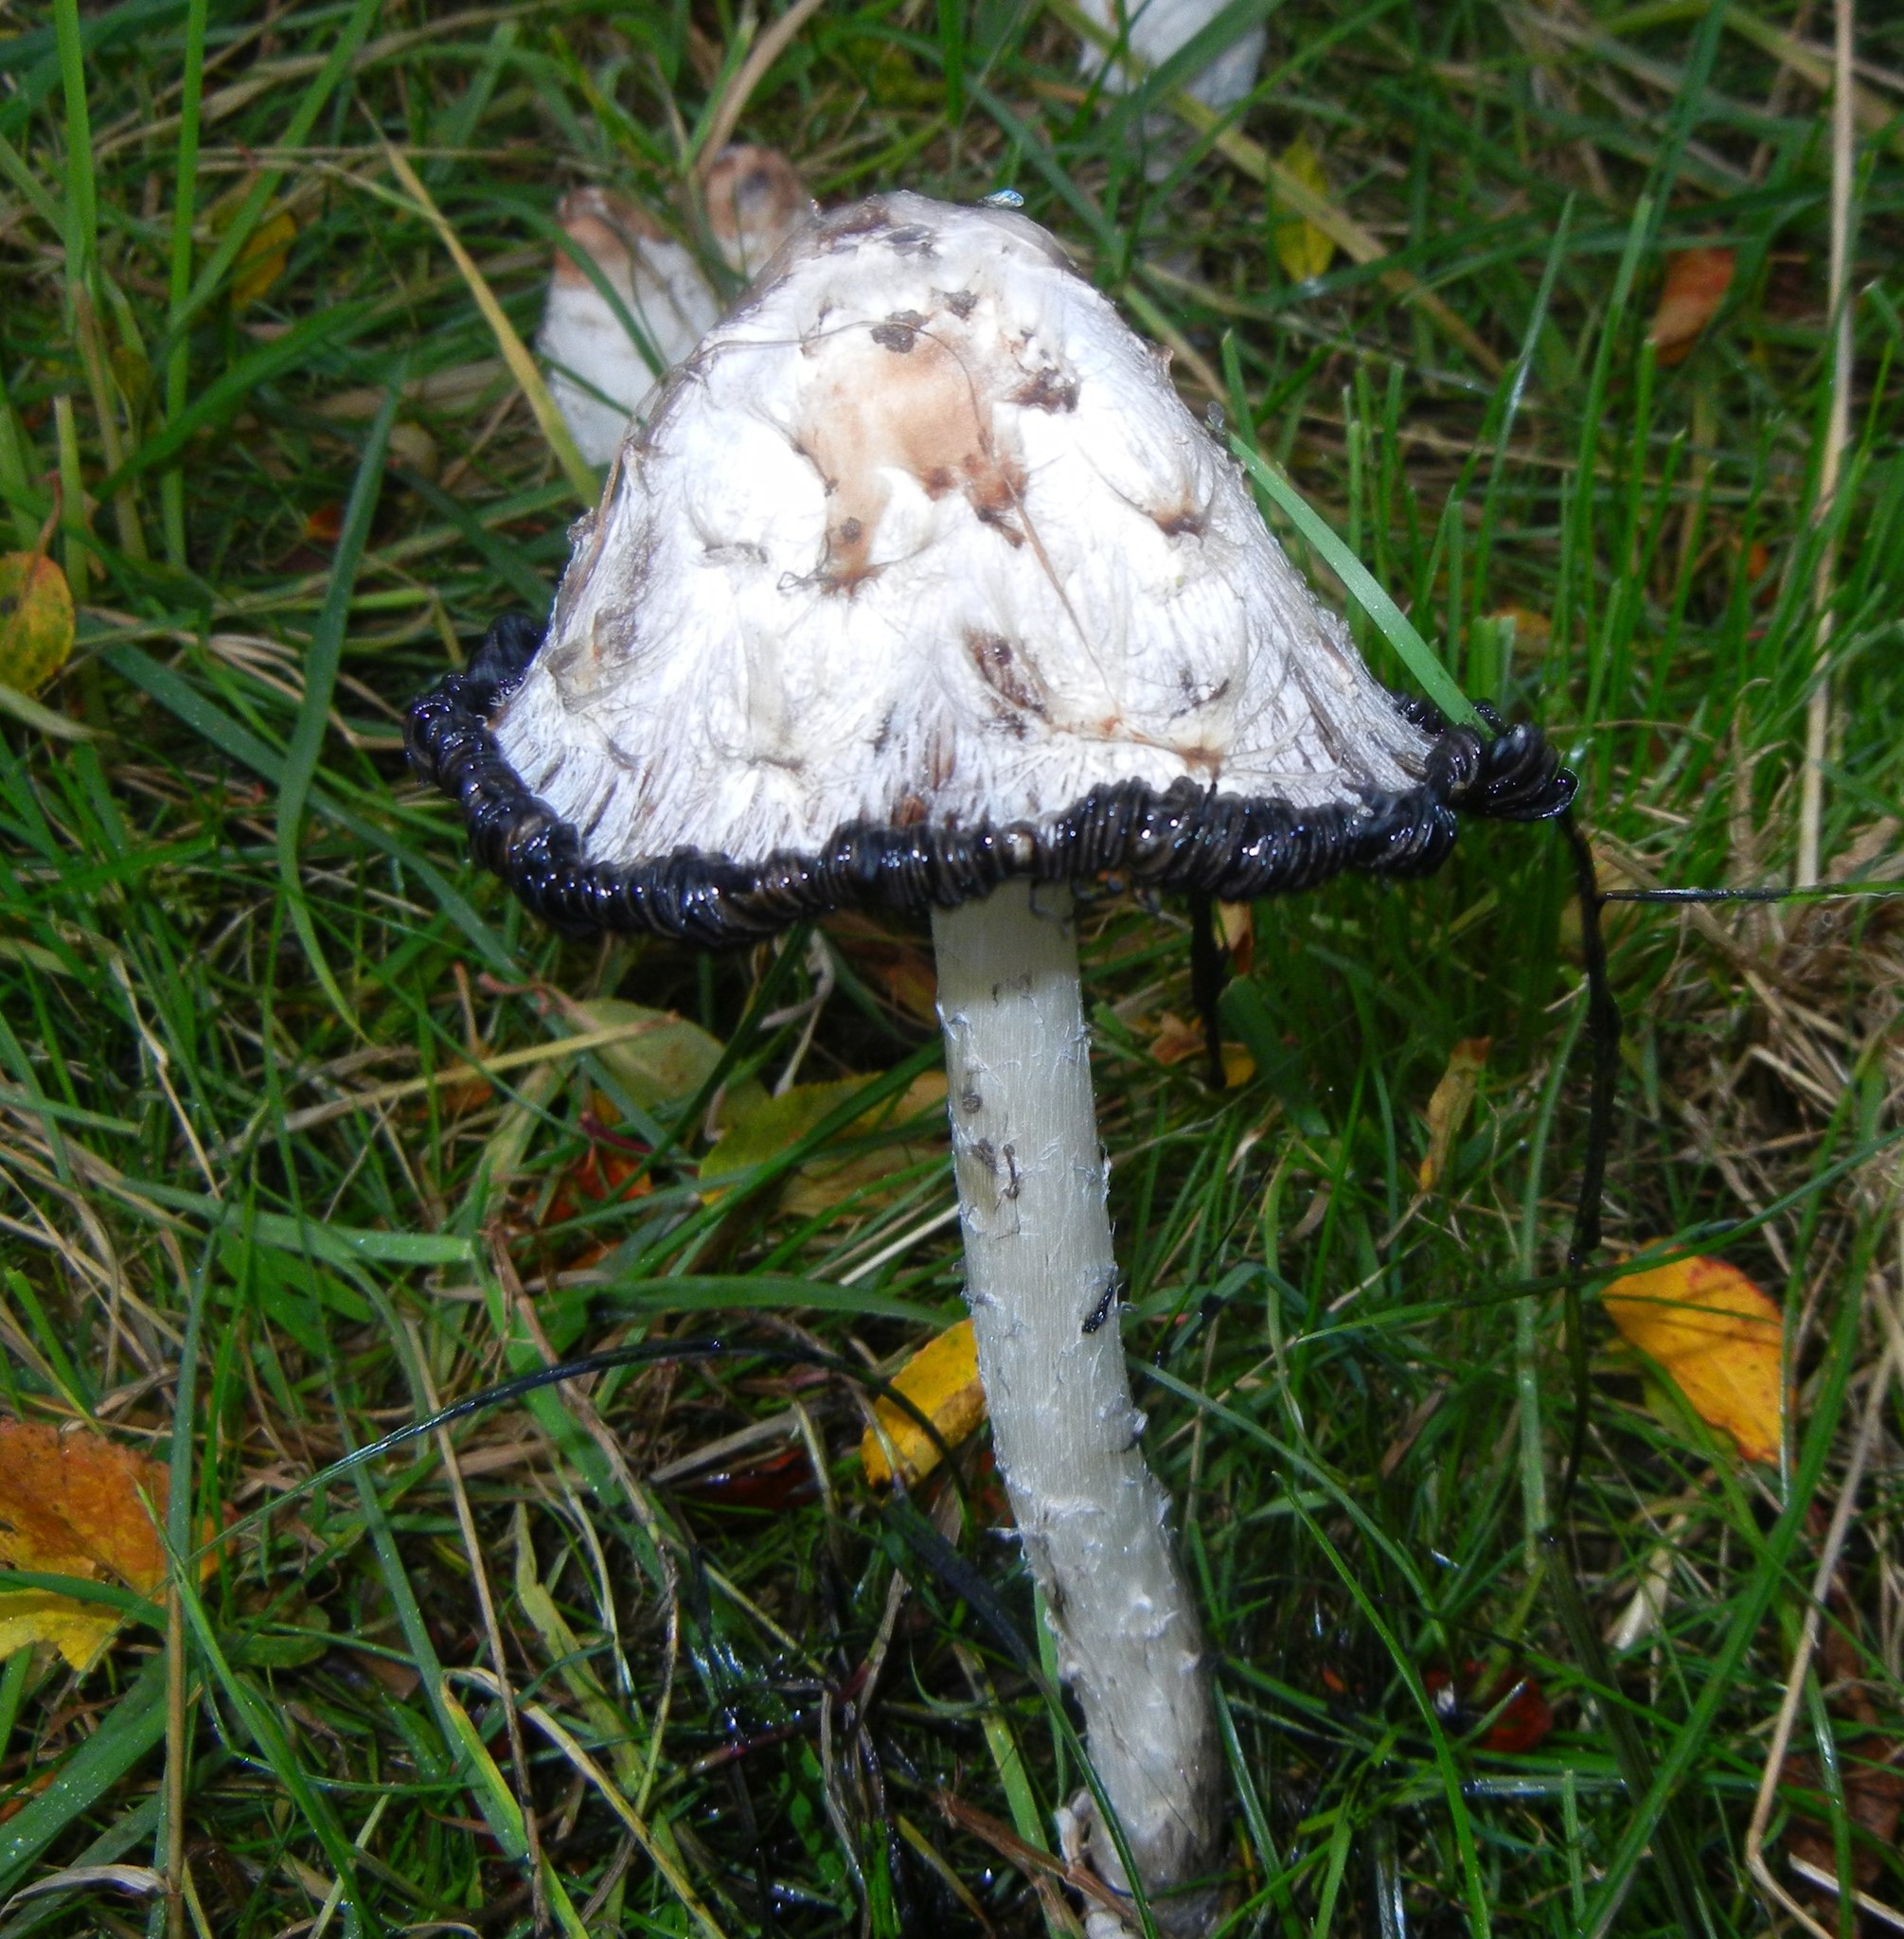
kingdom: Fungi
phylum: Basidiomycota
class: Agaricomycetes
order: Agaricales
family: Agaricaceae
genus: Coprinus
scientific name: Coprinus comatus
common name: Lawyer's wig
